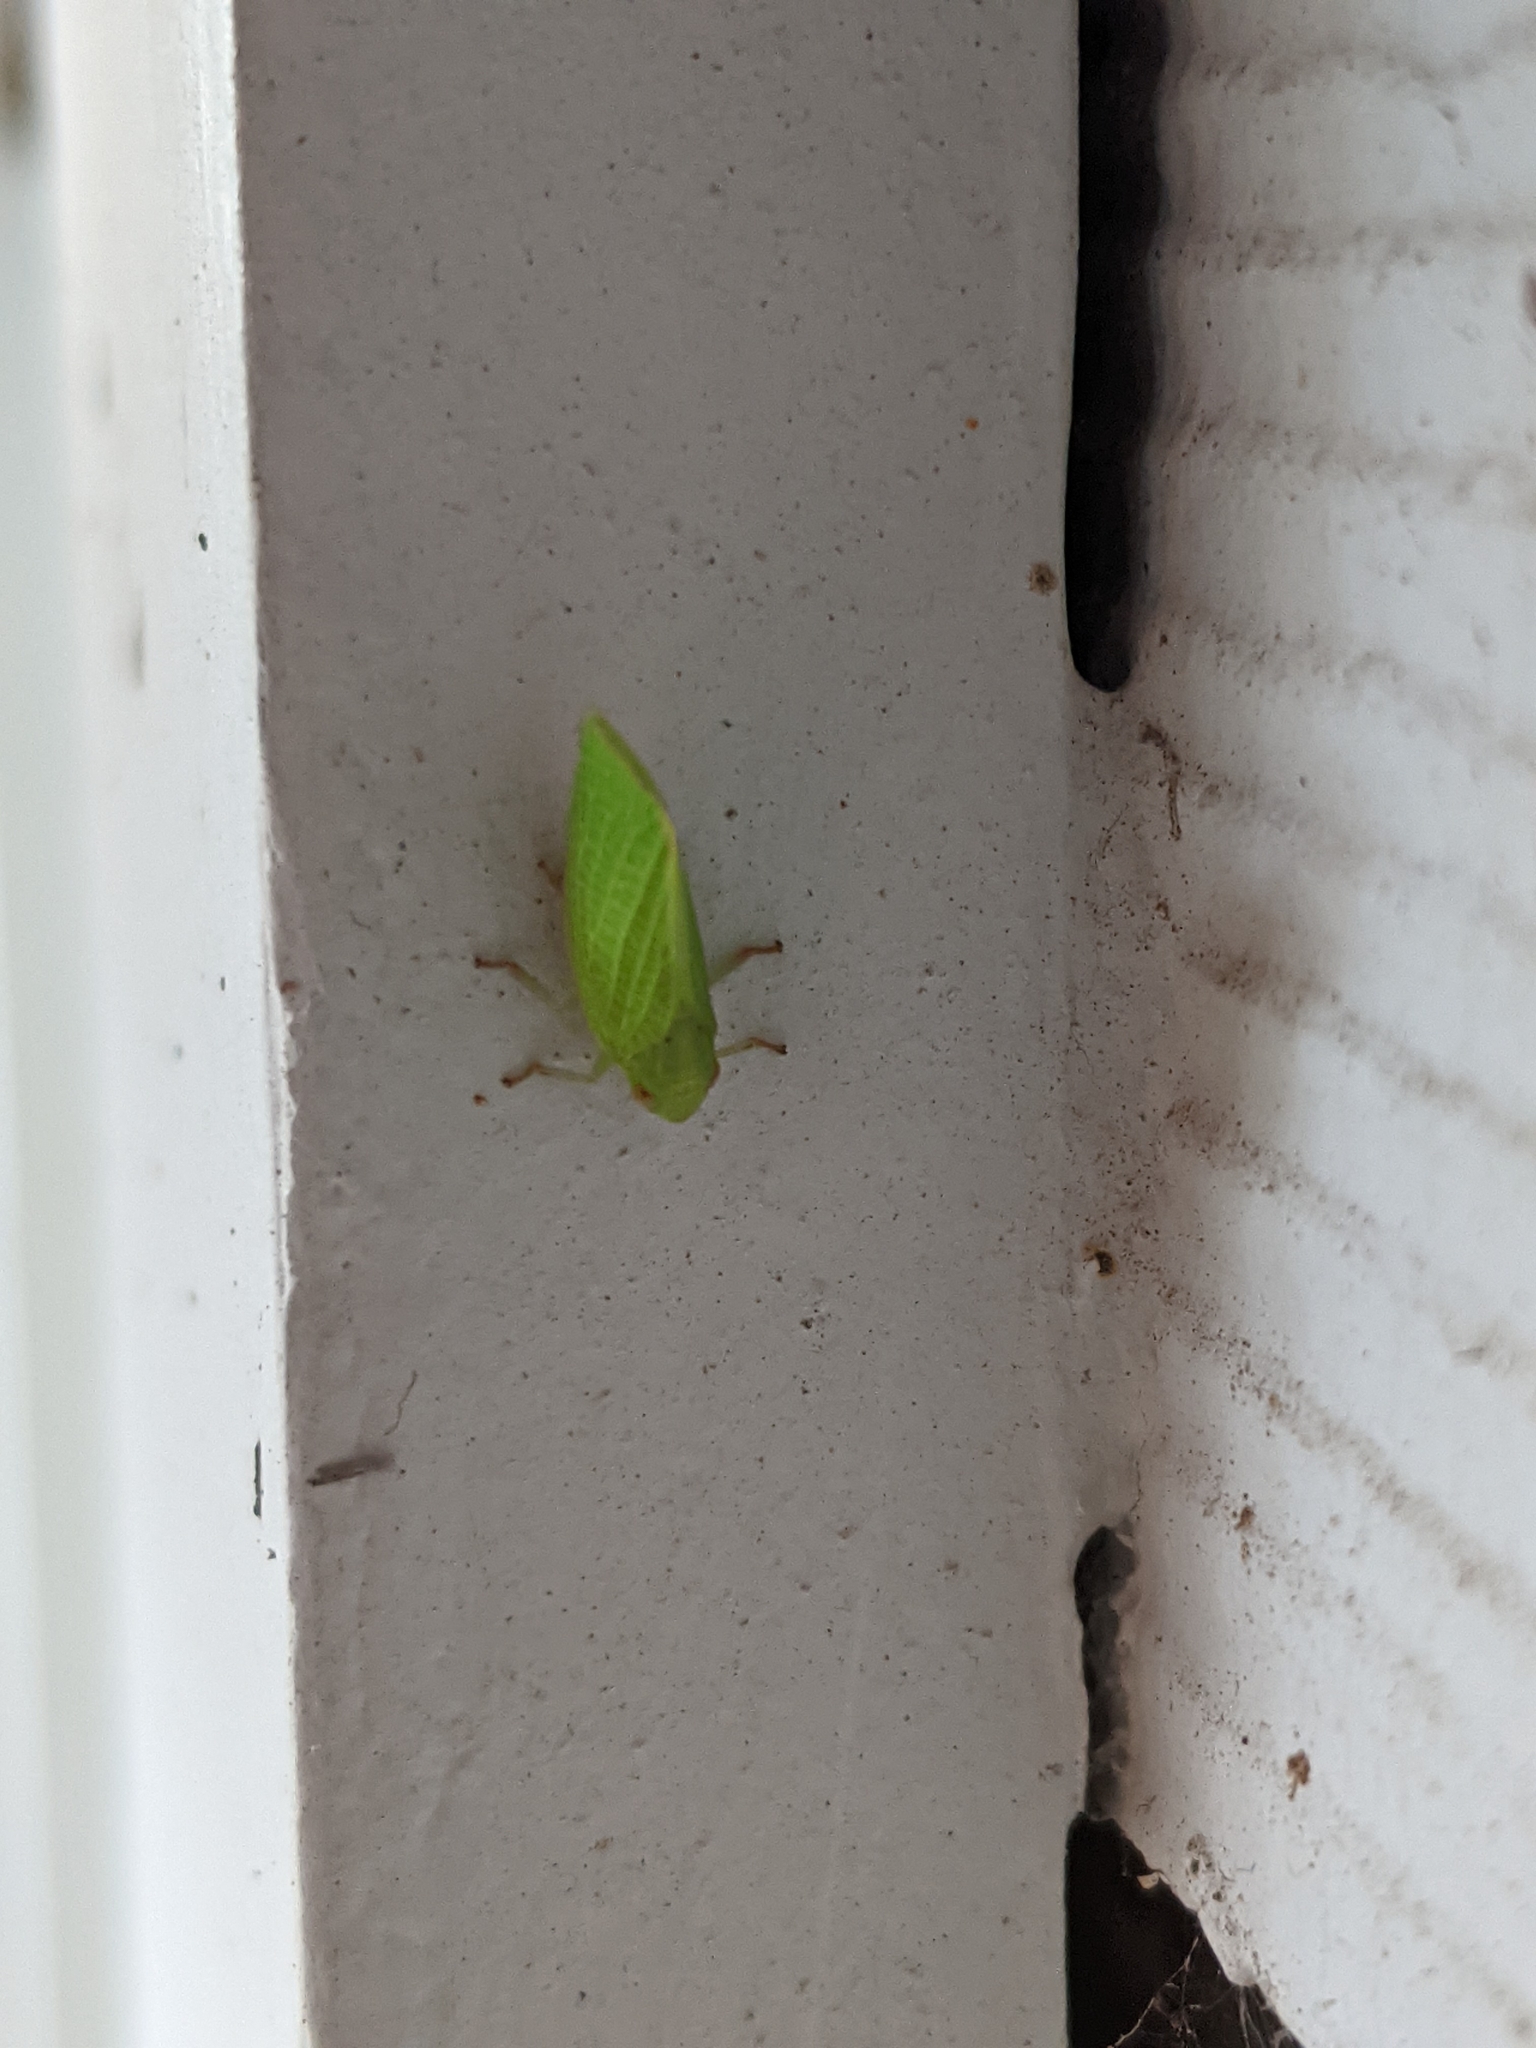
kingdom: Animalia
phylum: Arthropoda
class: Insecta
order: Hemiptera
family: Acanaloniidae
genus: Acanalonia
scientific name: Acanalonia conica
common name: Green cone-headed planthopper
